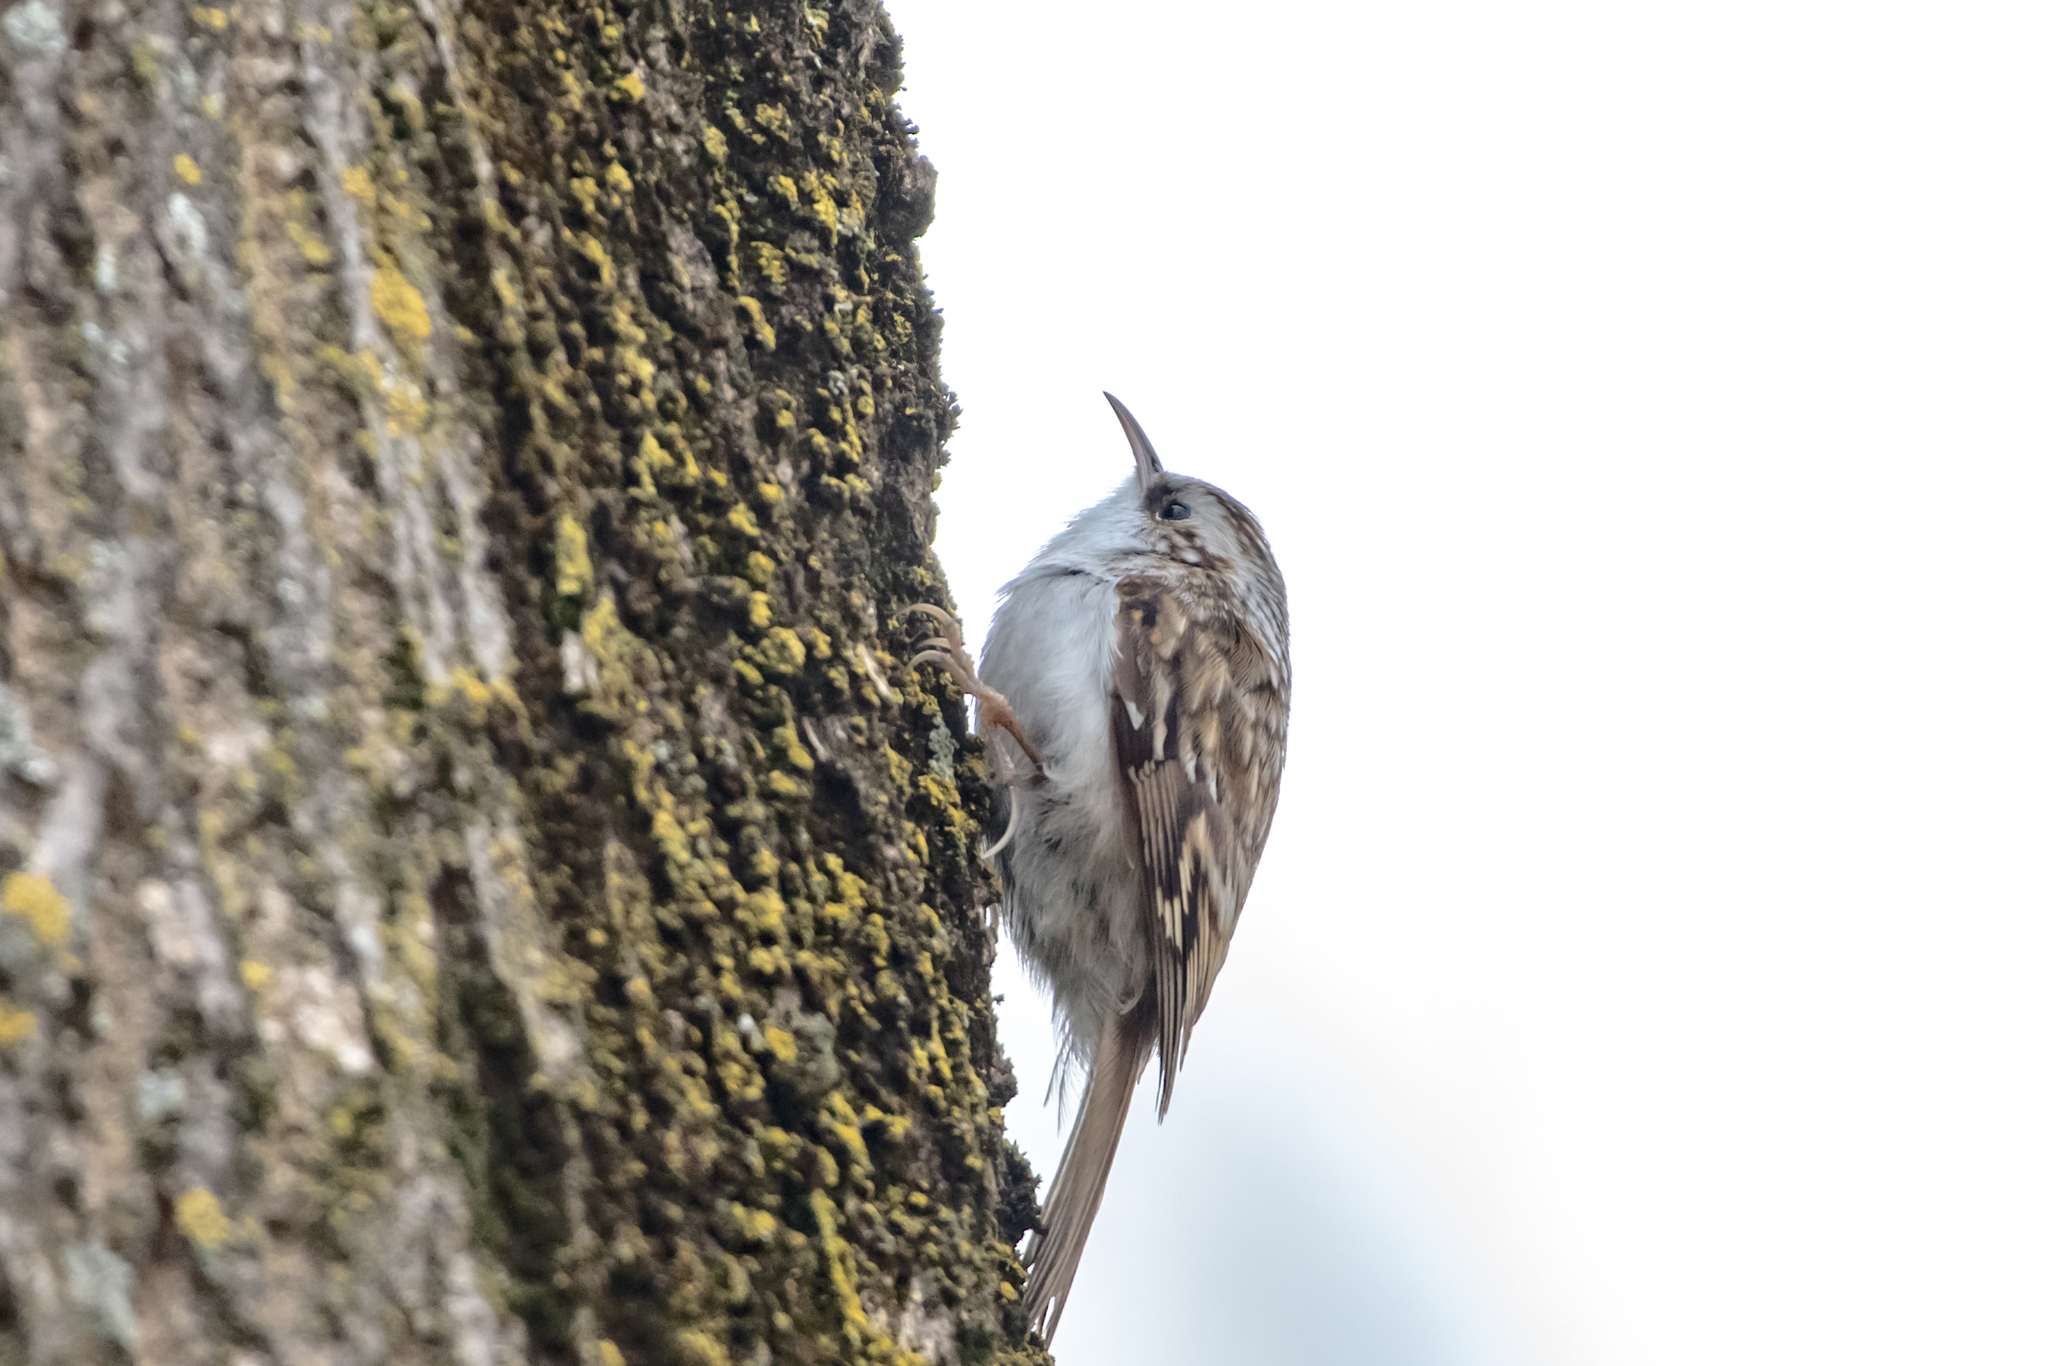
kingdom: Animalia
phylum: Chordata
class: Aves
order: Passeriformes
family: Certhiidae
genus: Certhia
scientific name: Certhia familiaris
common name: Eurasian treecreeper
